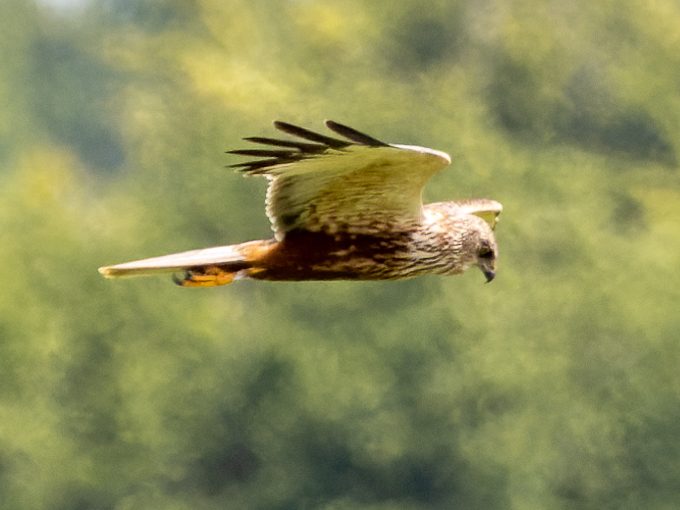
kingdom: Animalia
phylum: Chordata
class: Aves
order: Accipitriformes
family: Accipitridae
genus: Circus
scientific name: Circus aeruginosus
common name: Western marsh harrier
